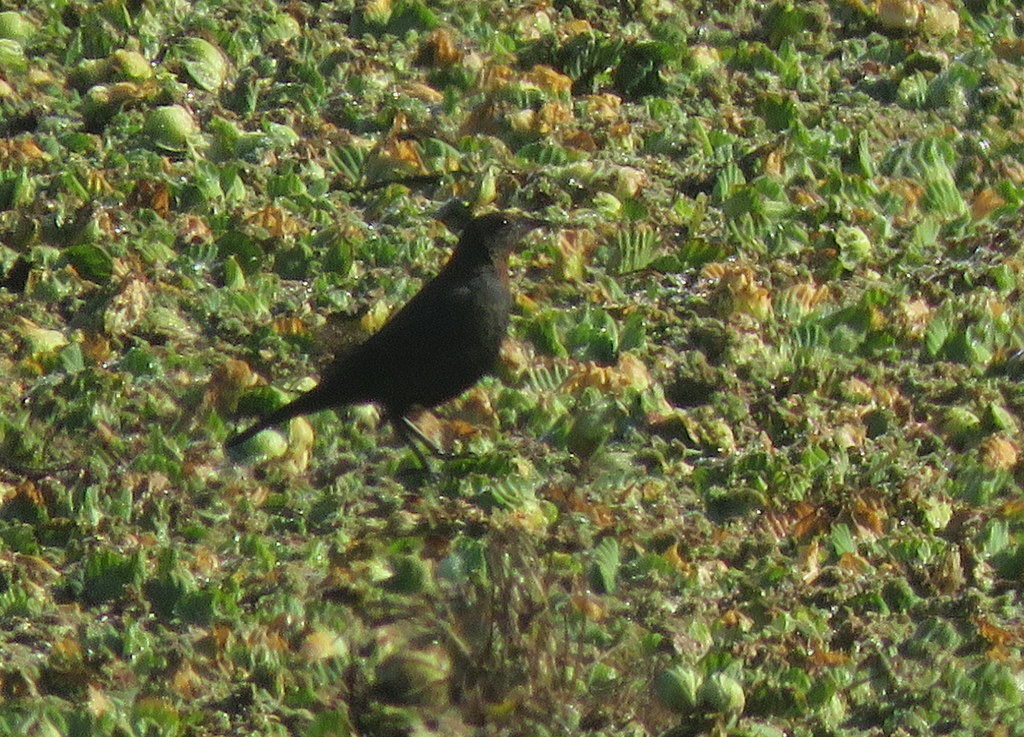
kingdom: Animalia
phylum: Chordata
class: Aves
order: Passeriformes
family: Icteridae
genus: Chrysomus
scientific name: Chrysomus ruficapillus
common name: Chestnut-capped blackbird
